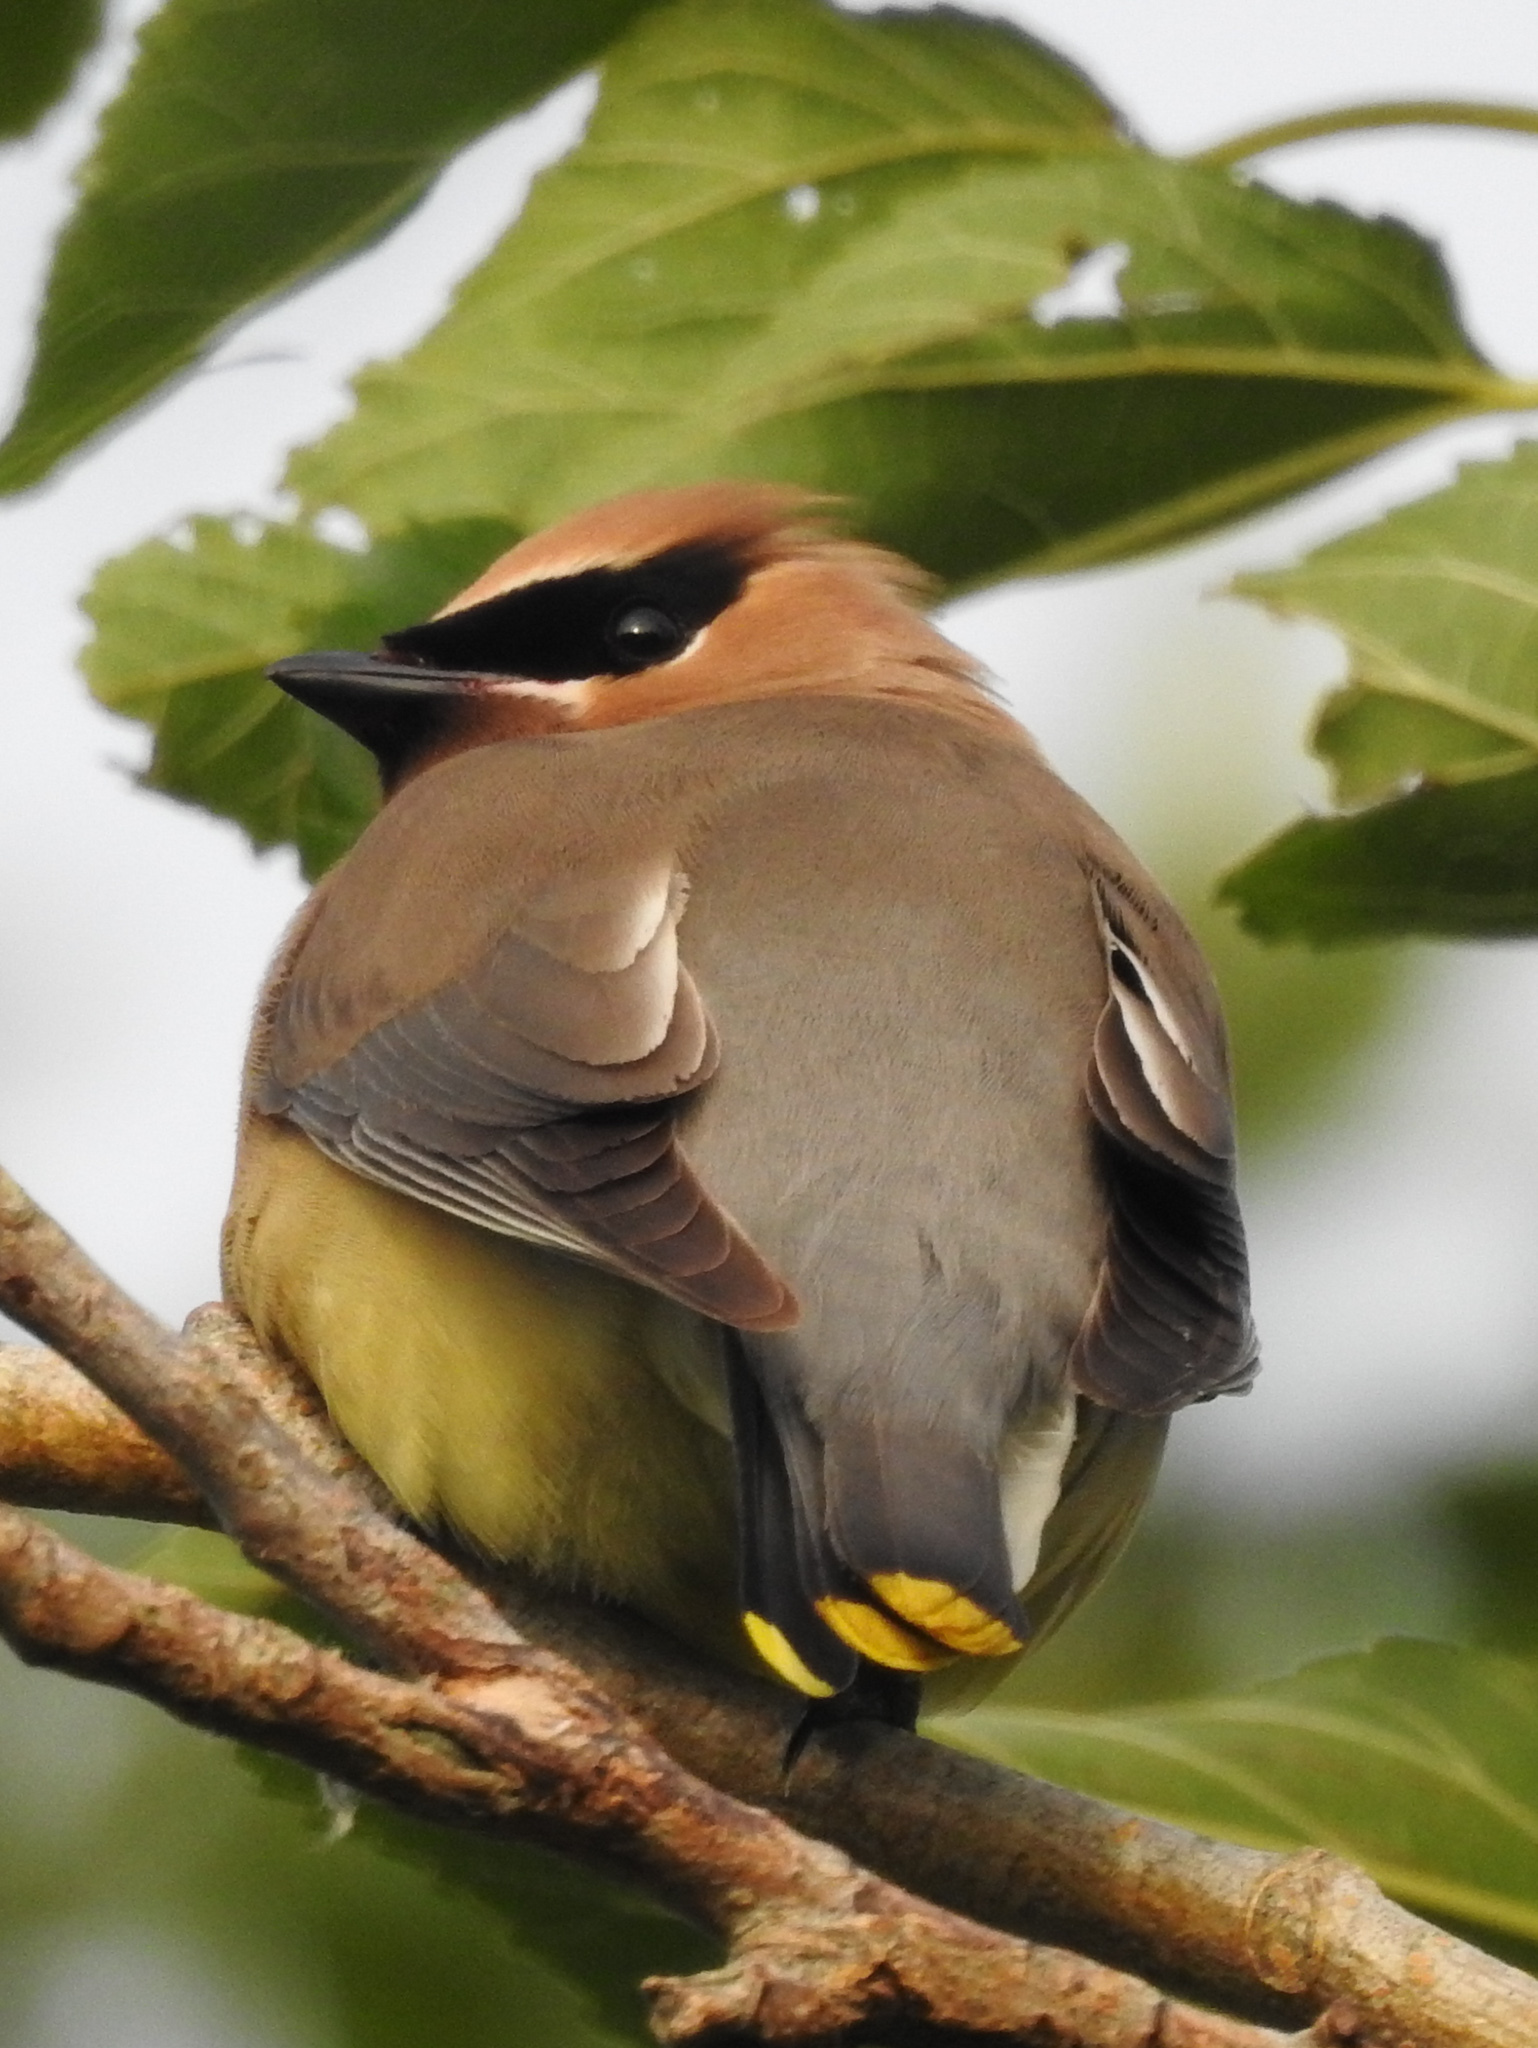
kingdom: Animalia
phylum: Chordata
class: Aves
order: Passeriformes
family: Bombycillidae
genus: Bombycilla
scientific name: Bombycilla cedrorum
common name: Cedar waxwing
